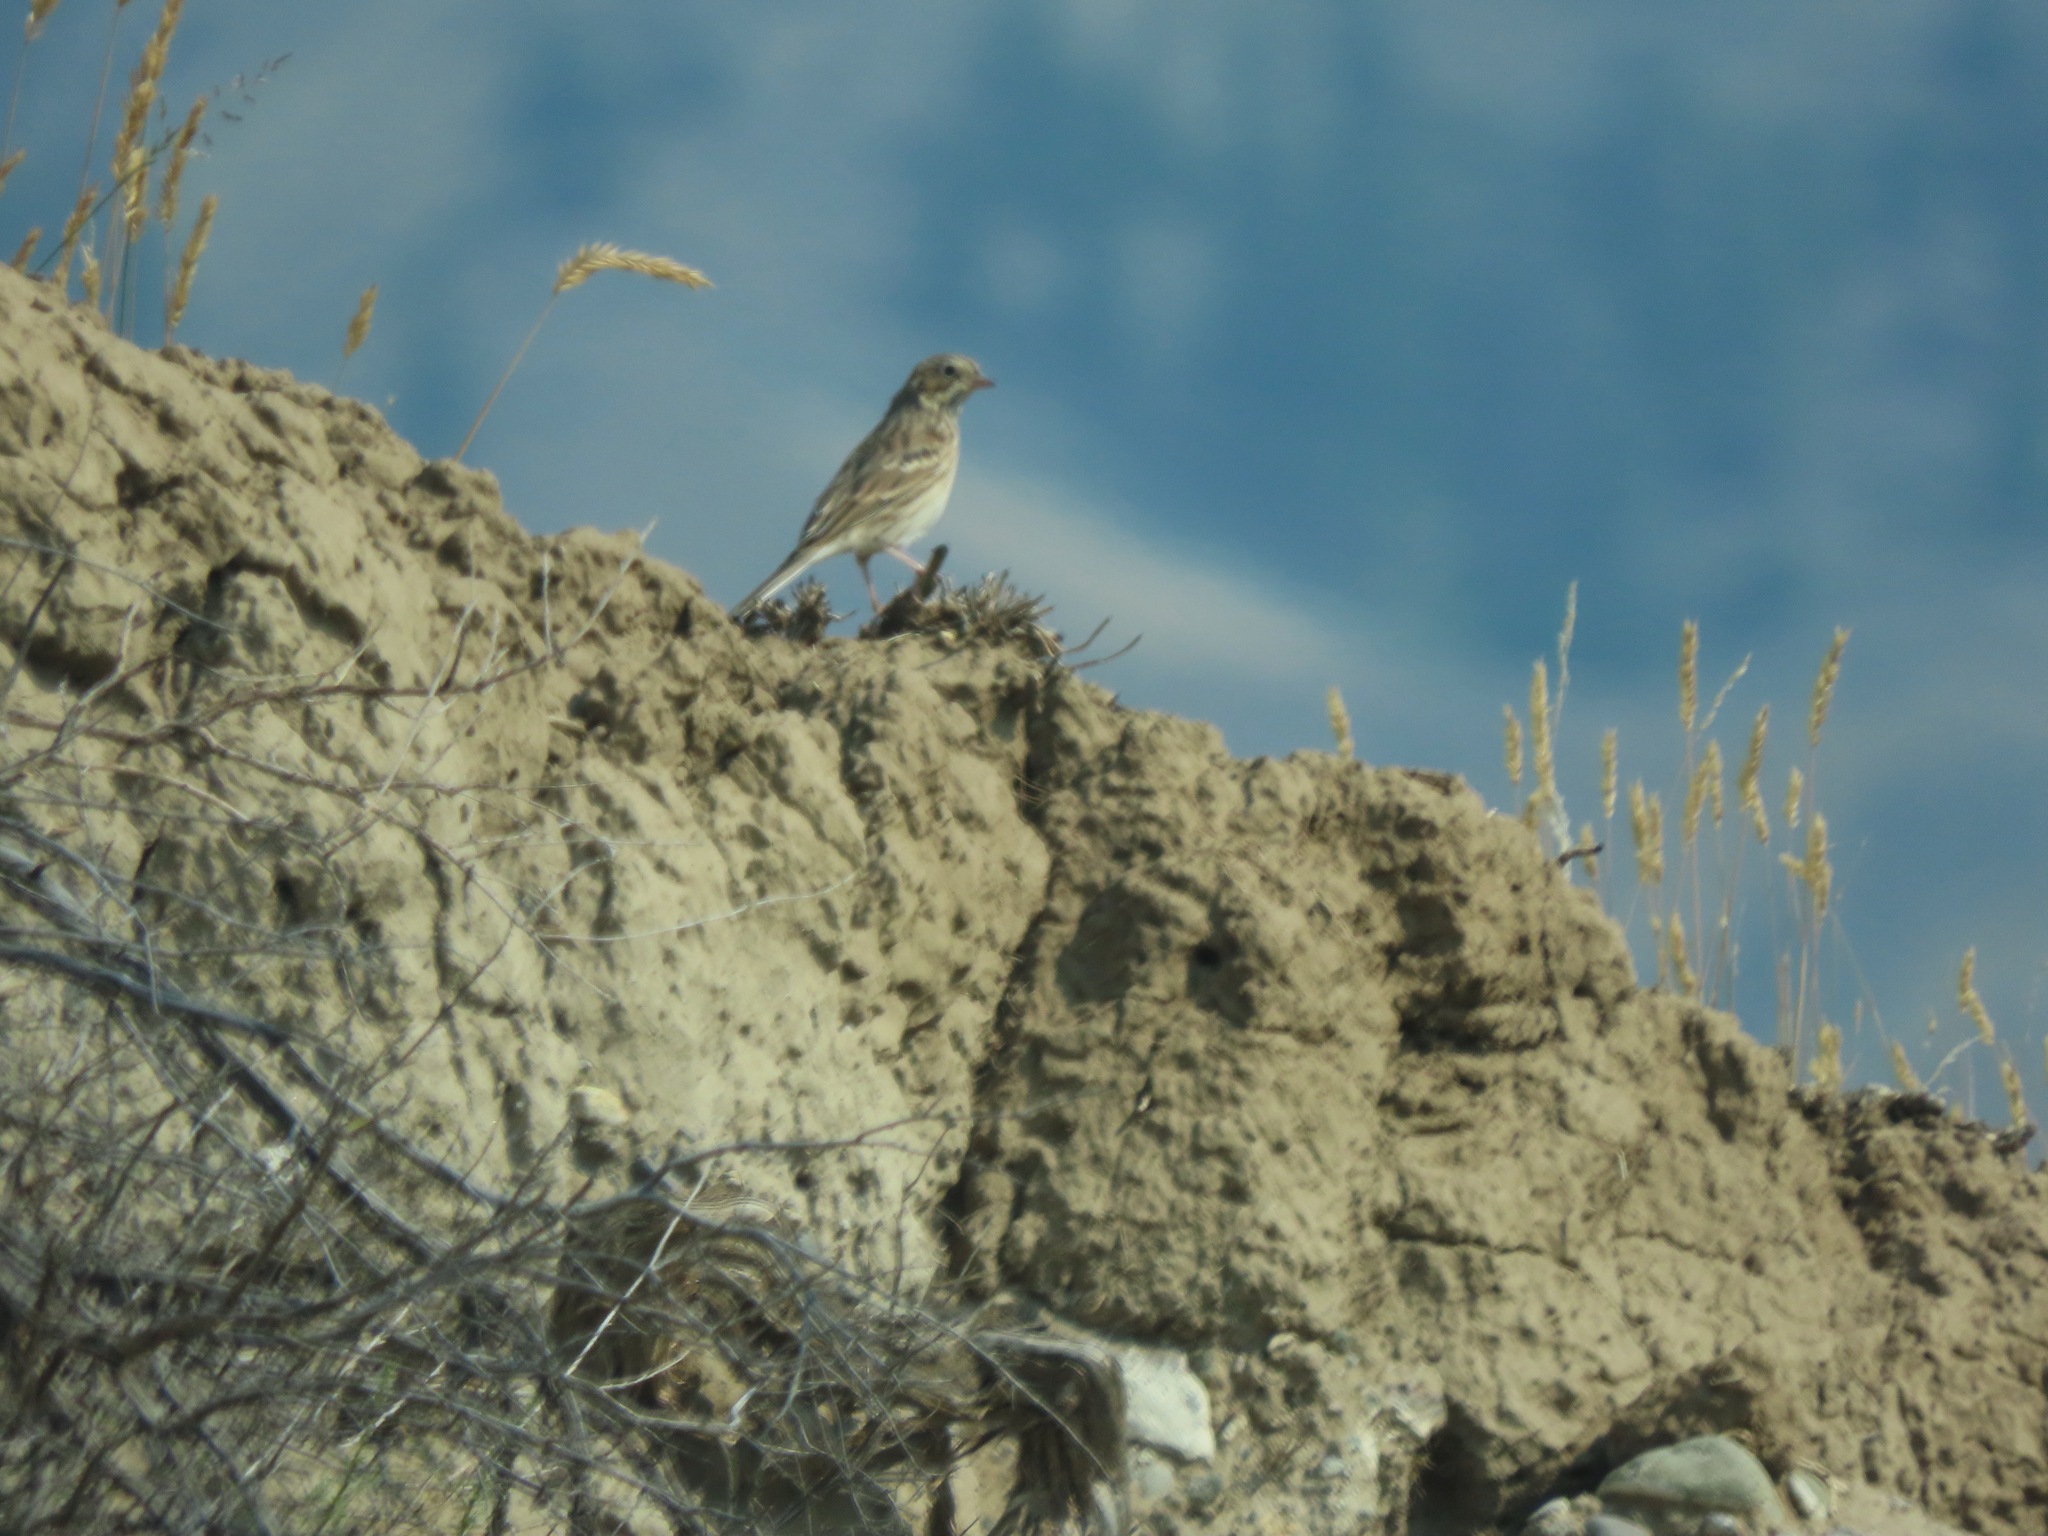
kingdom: Animalia
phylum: Chordata
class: Aves
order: Passeriformes
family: Passerellidae
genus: Pooecetes
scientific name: Pooecetes gramineus
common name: Vesper sparrow
